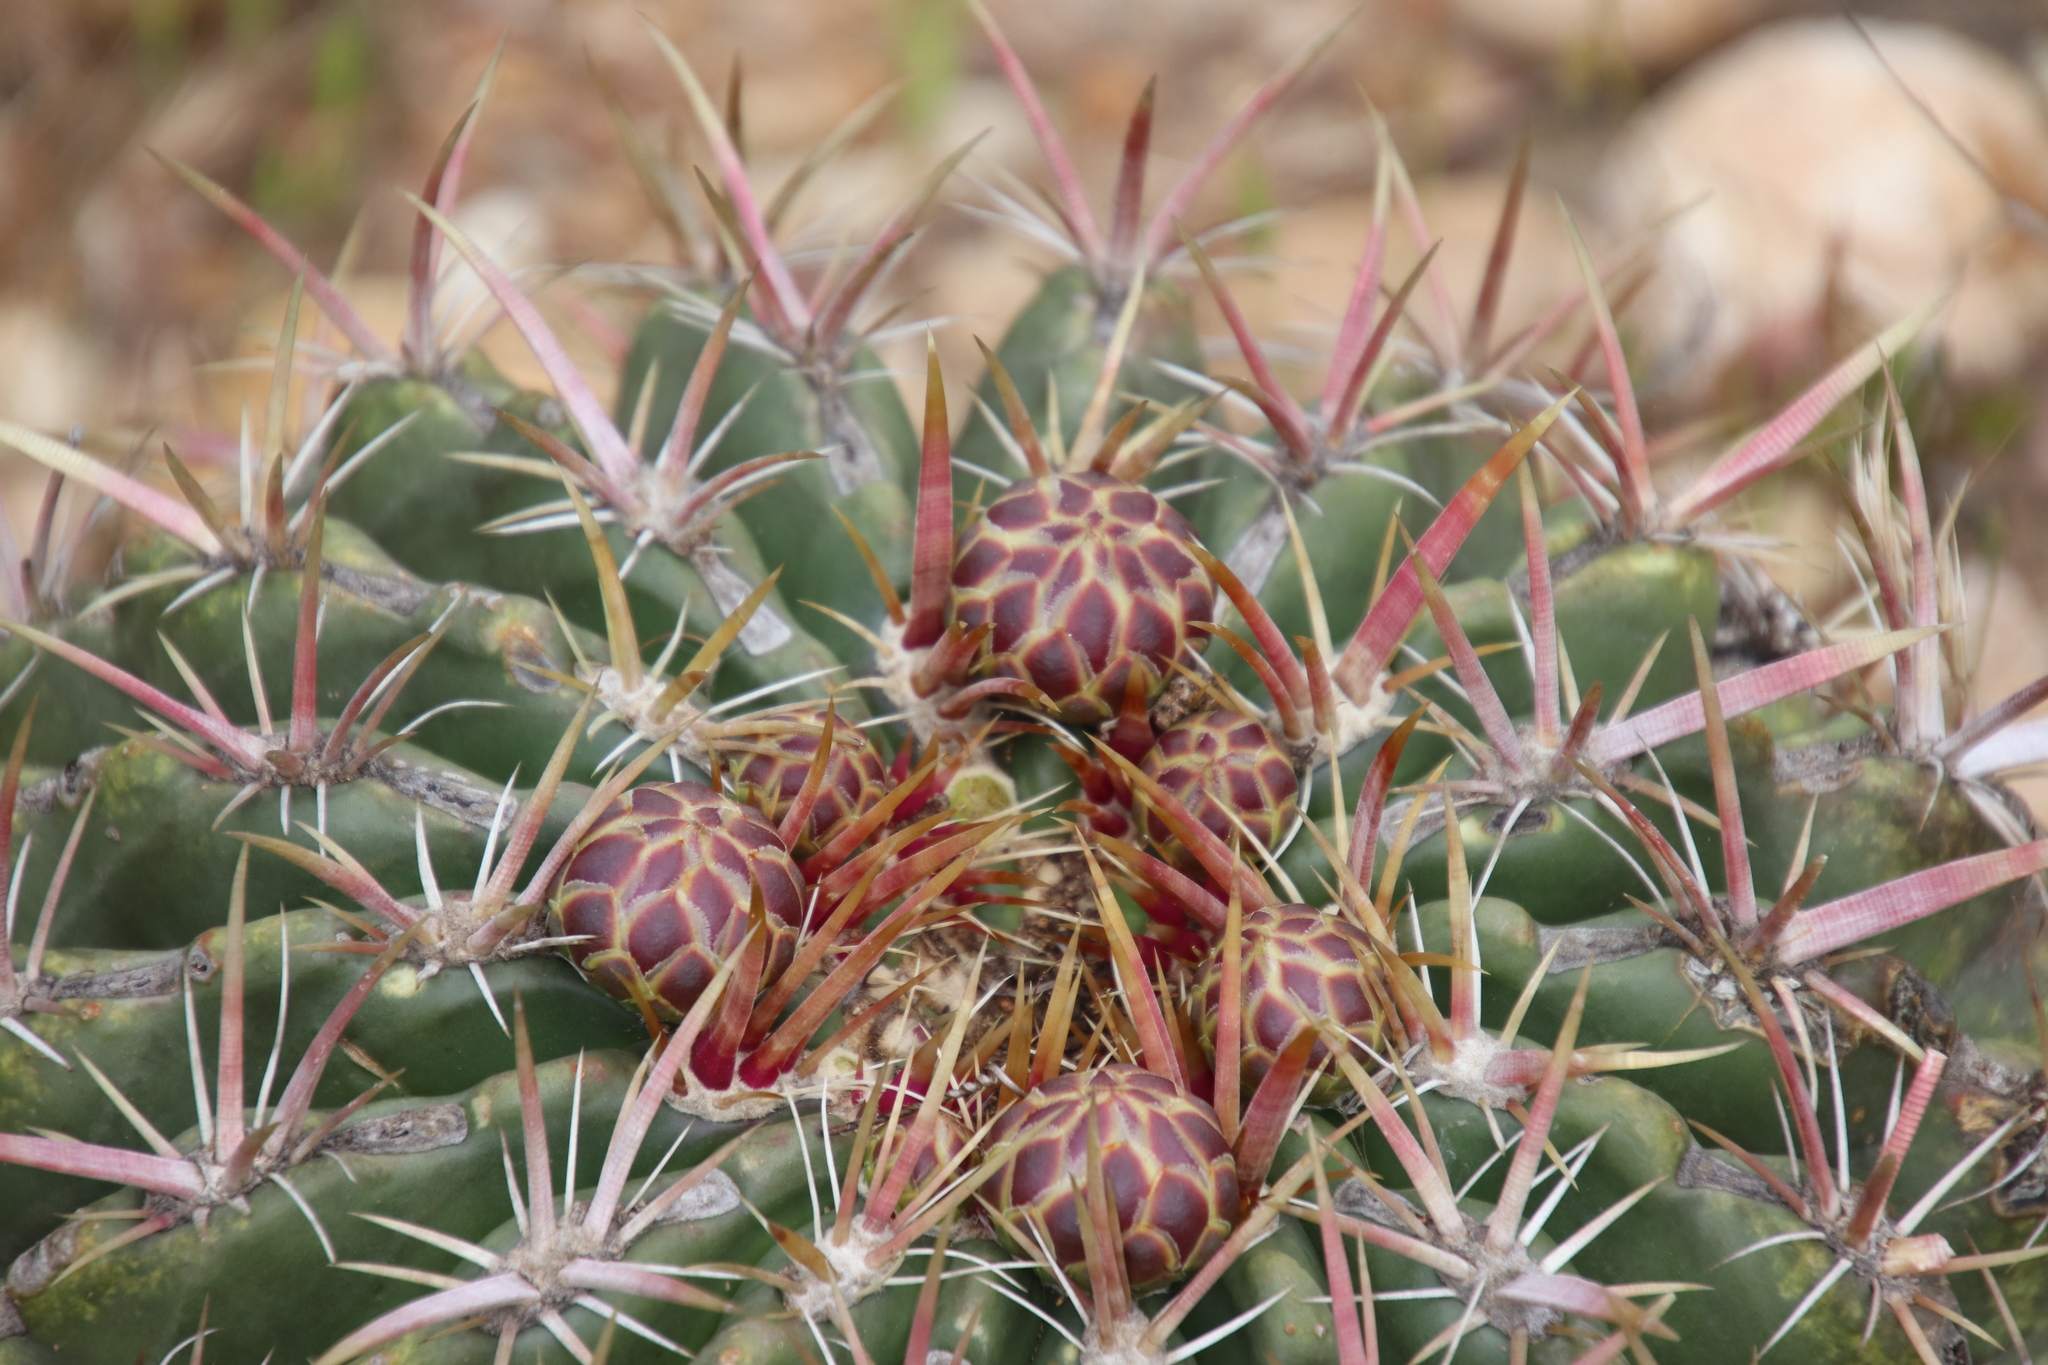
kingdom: Plantae
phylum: Tracheophyta
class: Magnoliopsida
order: Caryophyllales
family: Cactaceae
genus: Ferocactus
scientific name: Ferocactus viridescens
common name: San diego barrel cactus
